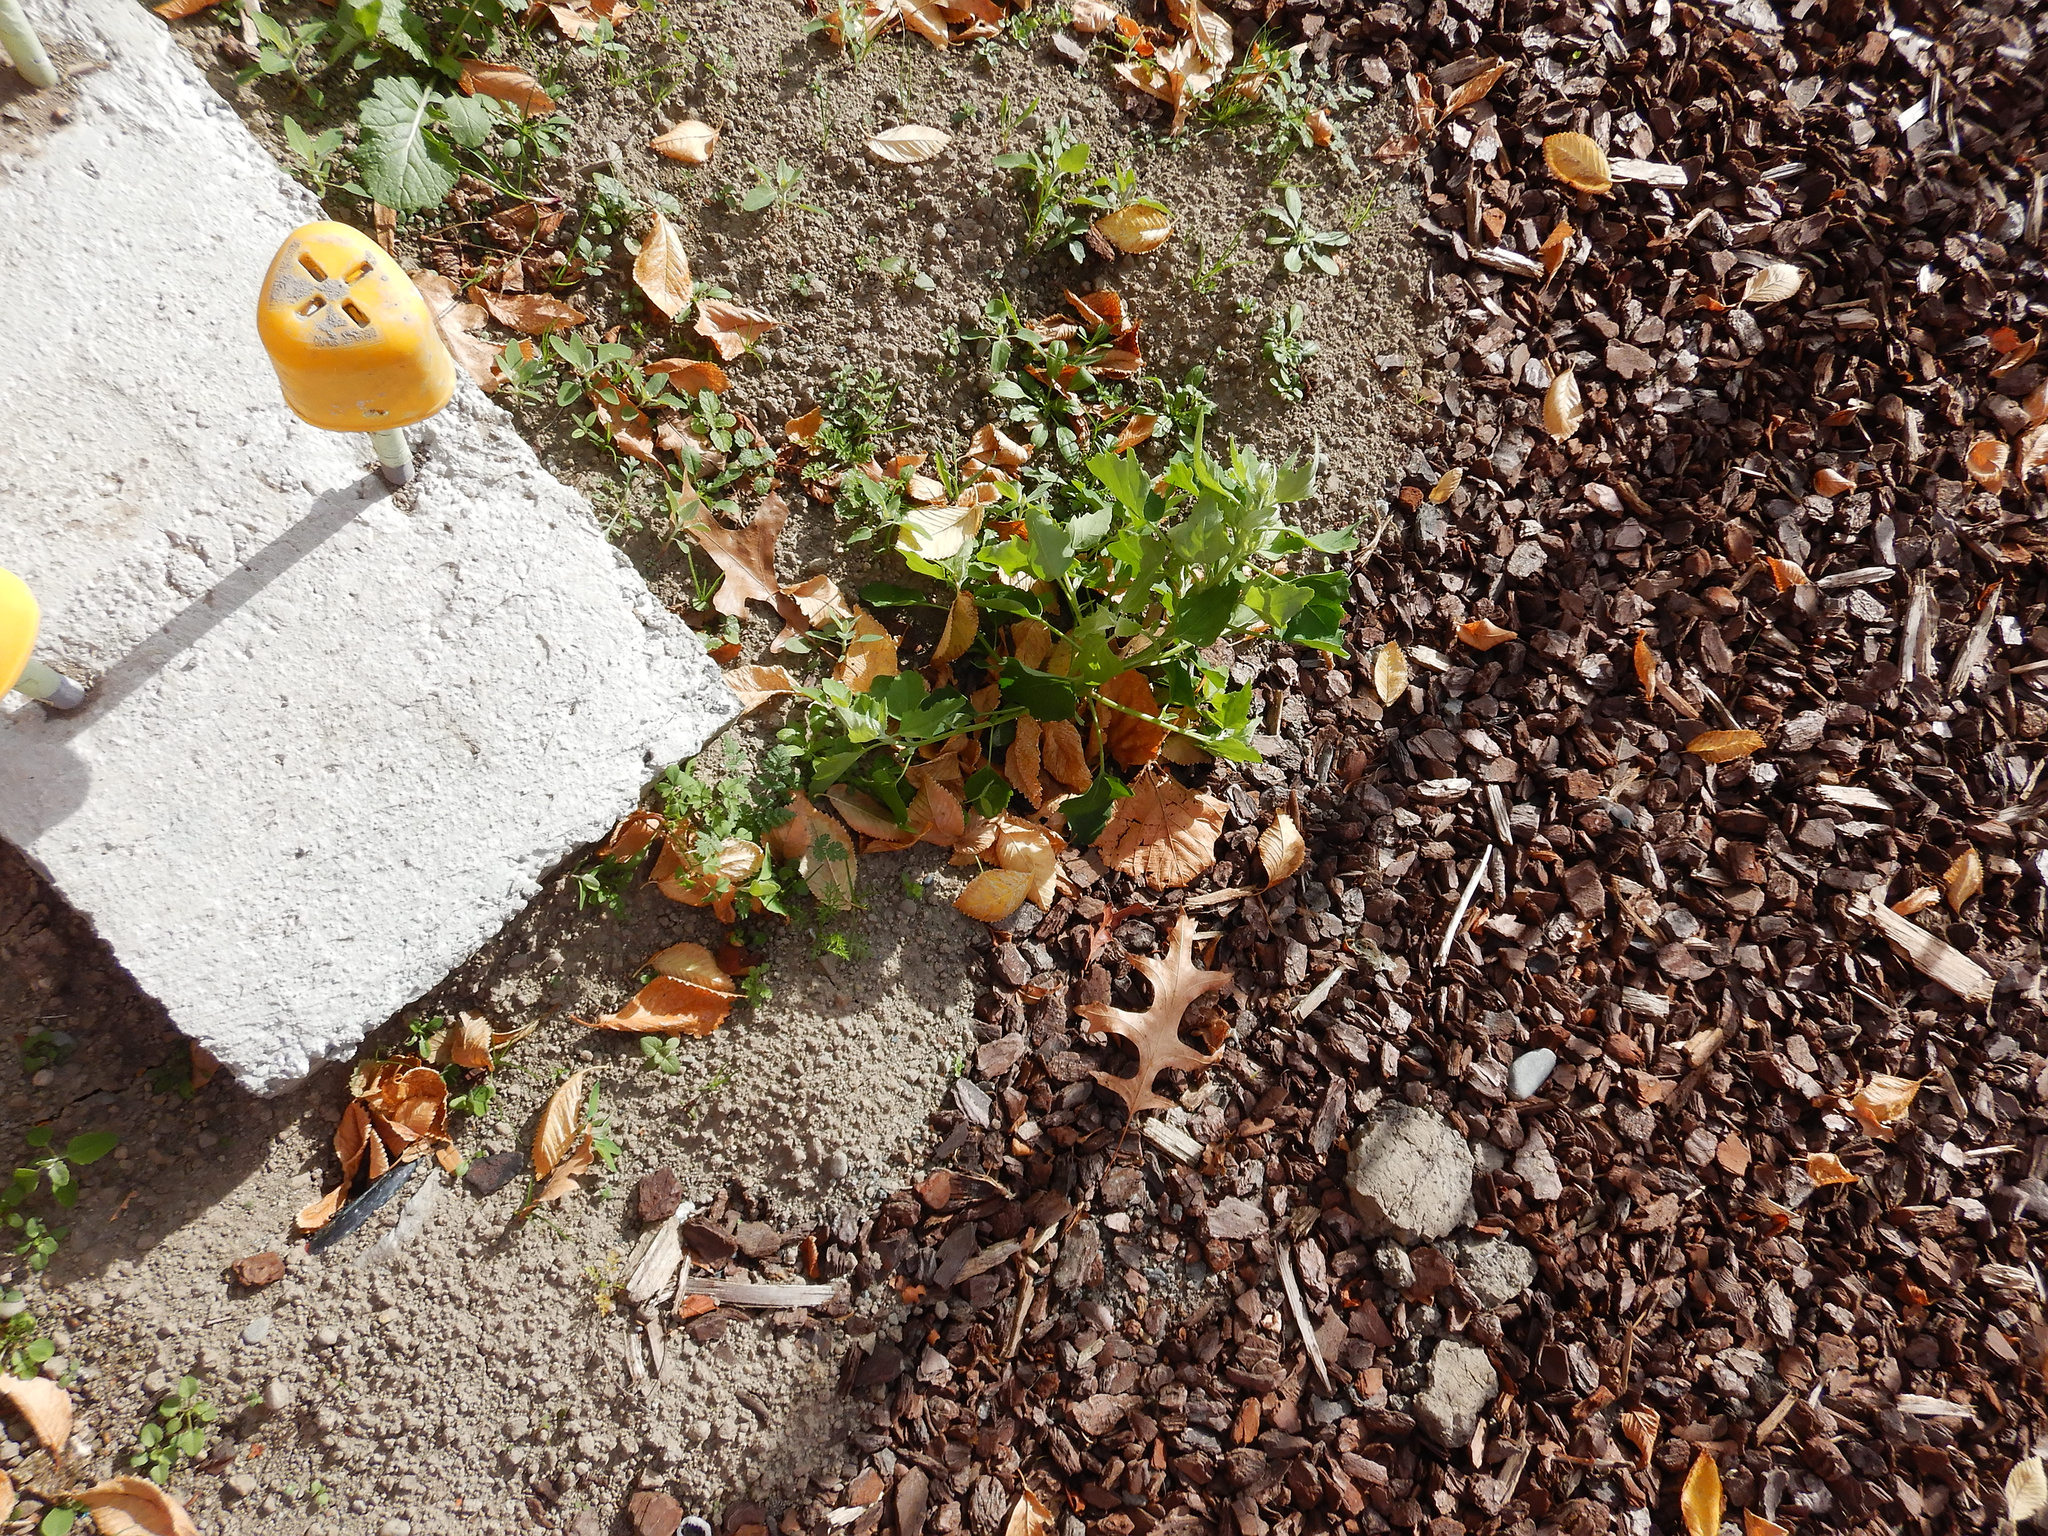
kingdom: Plantae
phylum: Tracheophyta
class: Magnoliopsida
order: Caryophyllales
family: Amaranthaceae
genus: Chenopodium
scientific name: Chenopodium album
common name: Fat-hen
